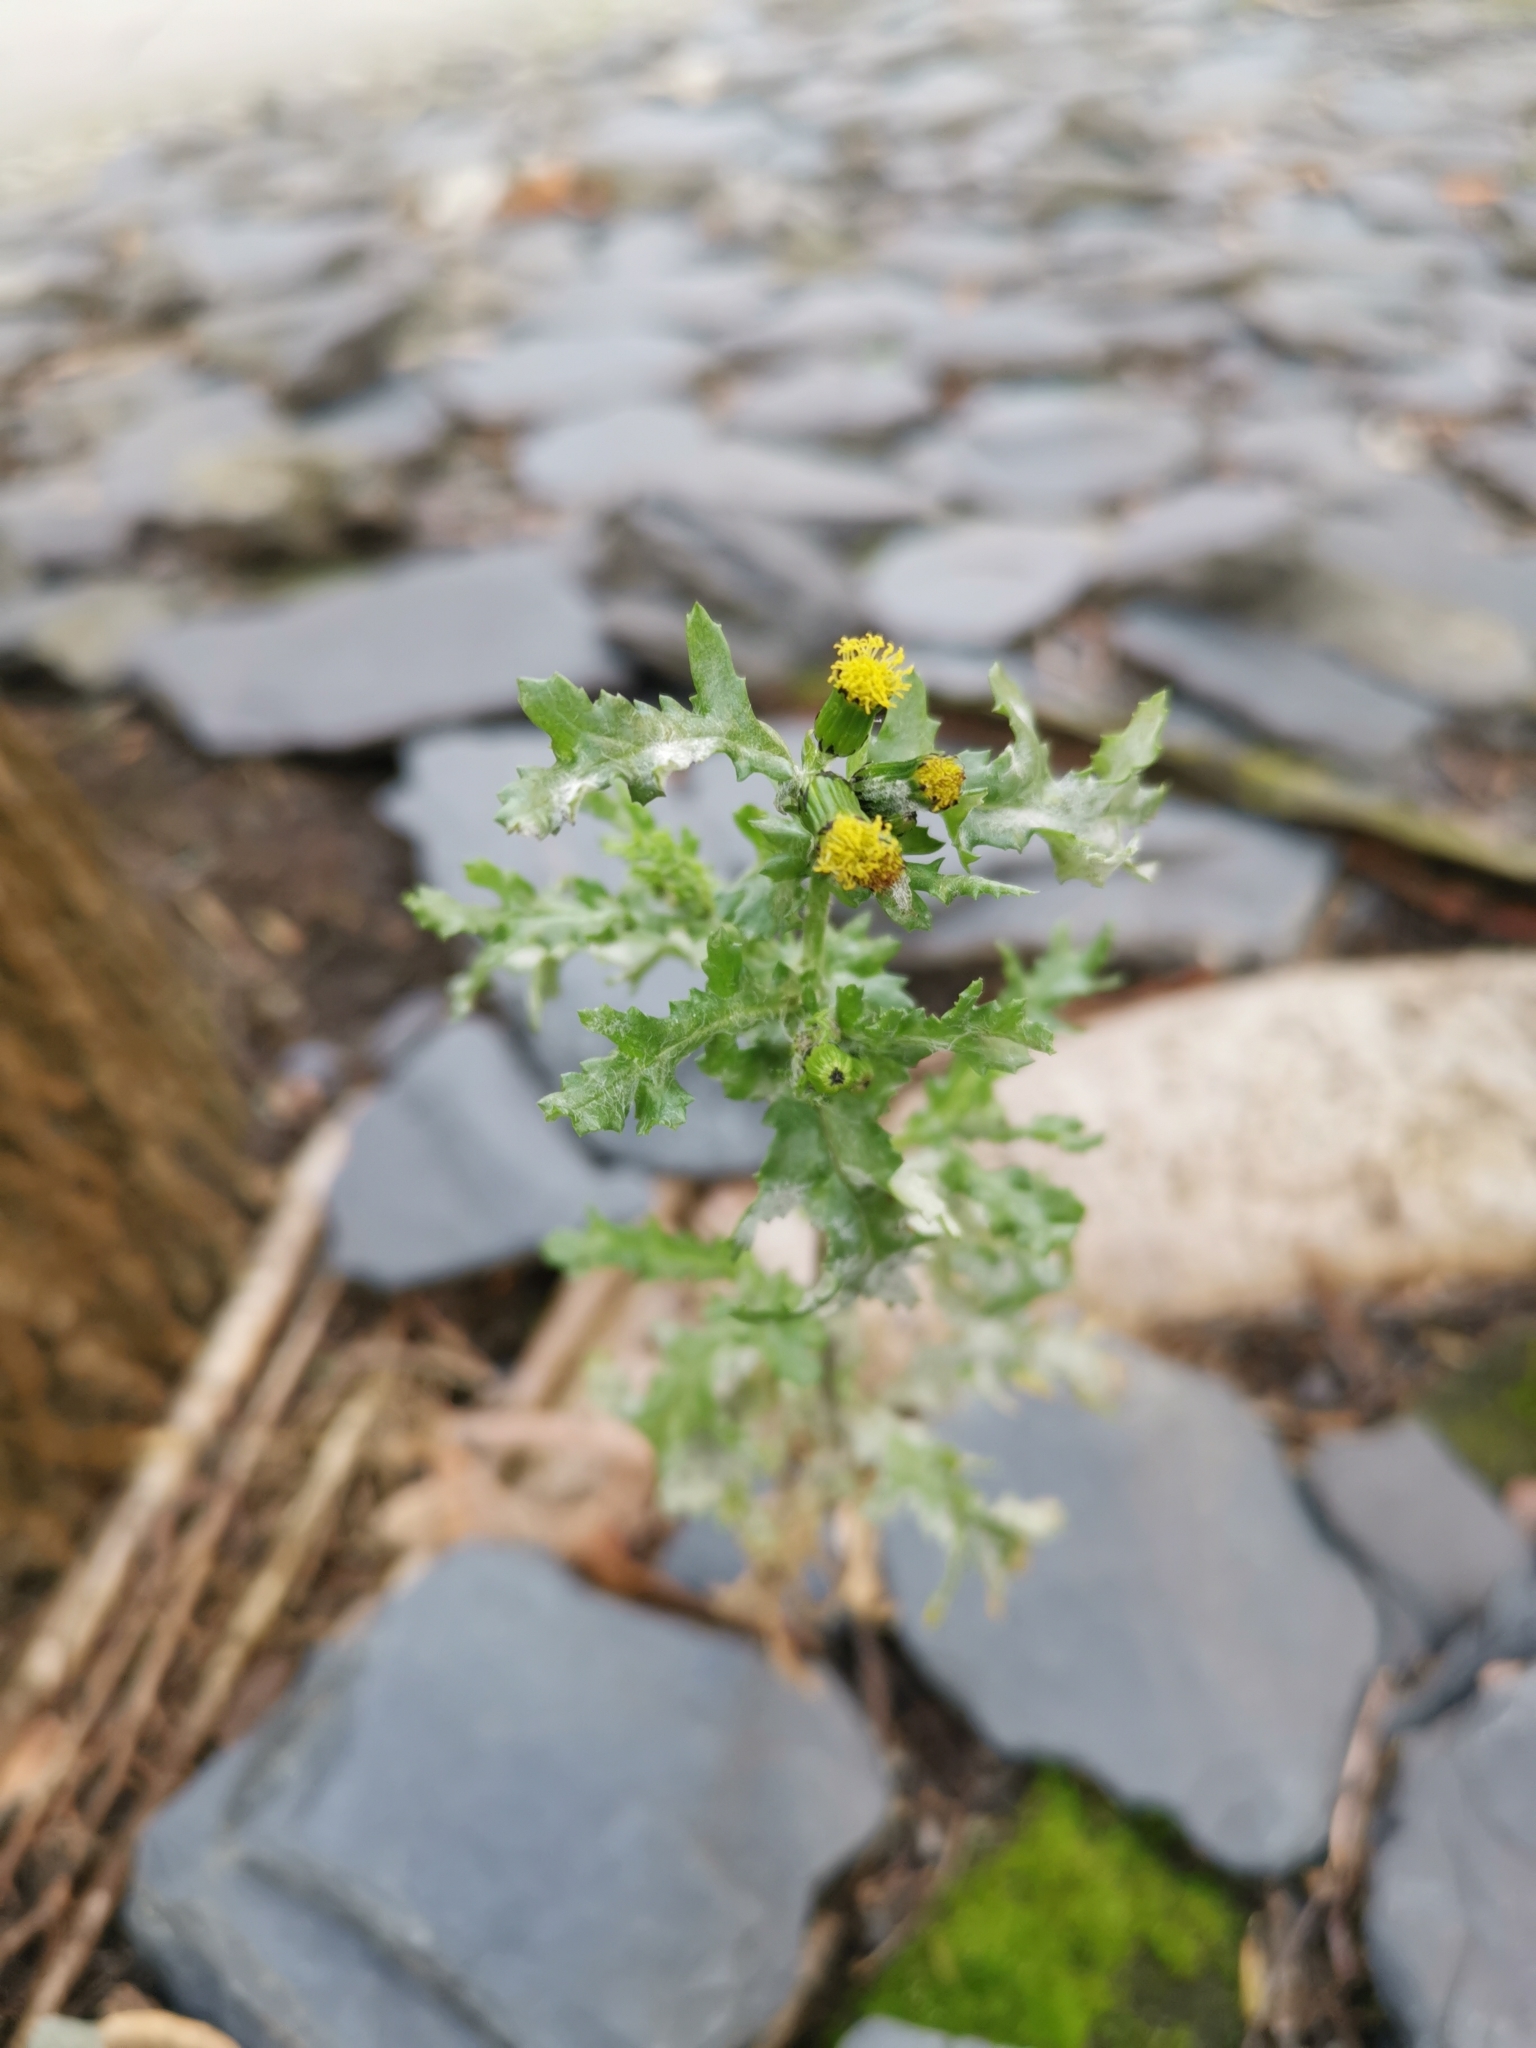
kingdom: Plantae
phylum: Tracheophyta
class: Magnoliopsida
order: Asterales
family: Asteraceae
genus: Senecio
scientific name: Senecio vulgaris
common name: Old-man-in-the-spring
